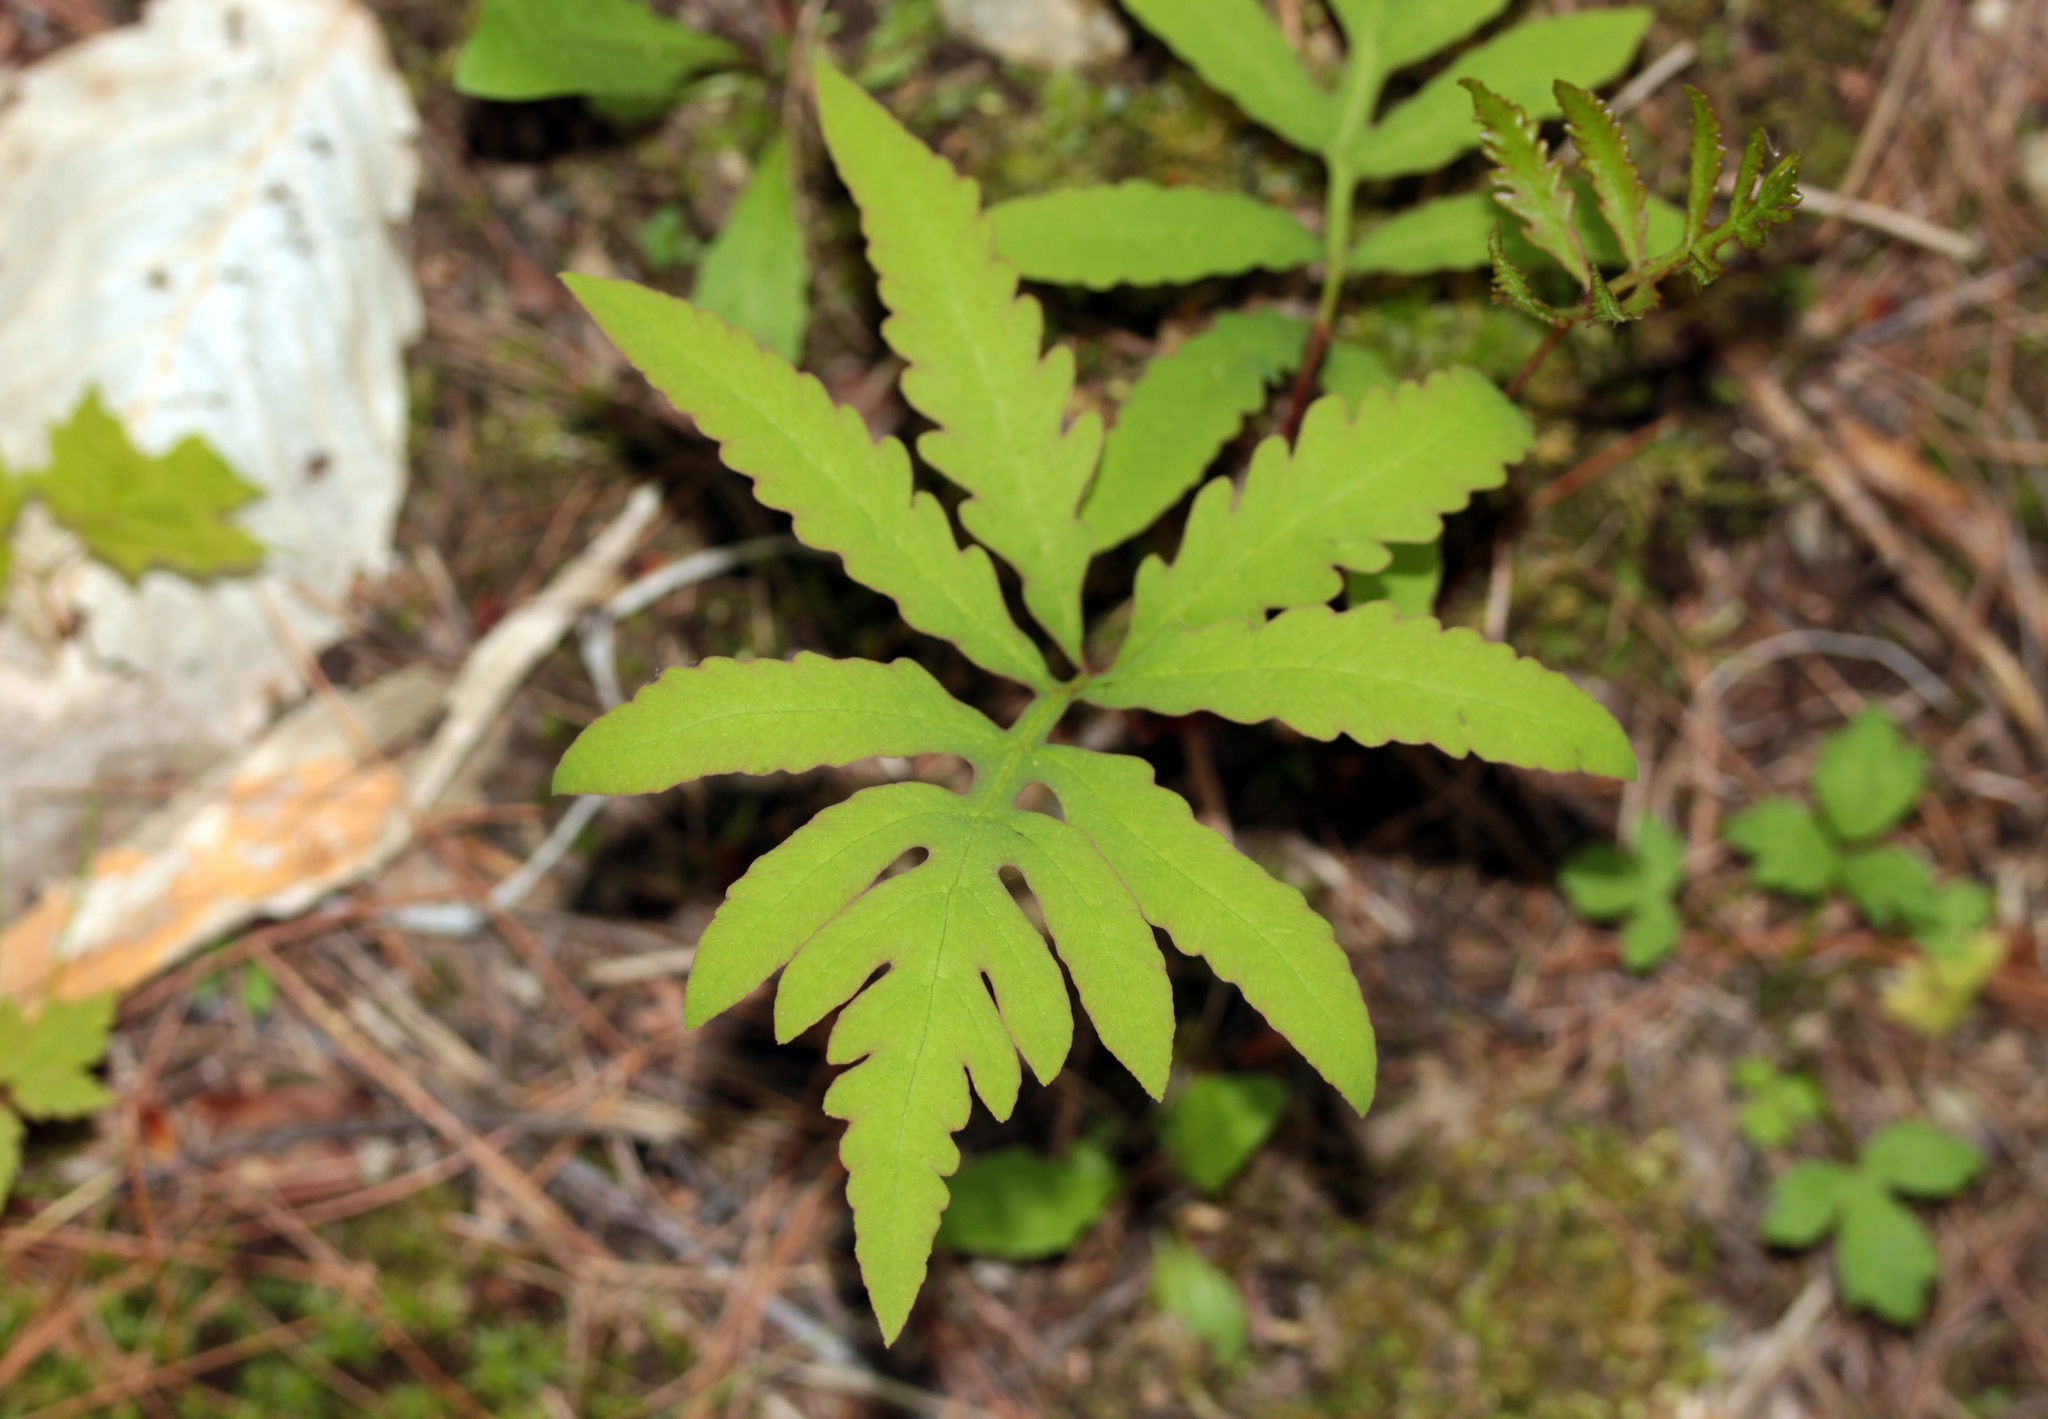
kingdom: Plantae
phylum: Tracheophyta
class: Polypodiopsida
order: Polypodiales
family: Onocleaceae
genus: Onoclea
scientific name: Onoclea sensibilis
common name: Sensitive fern
